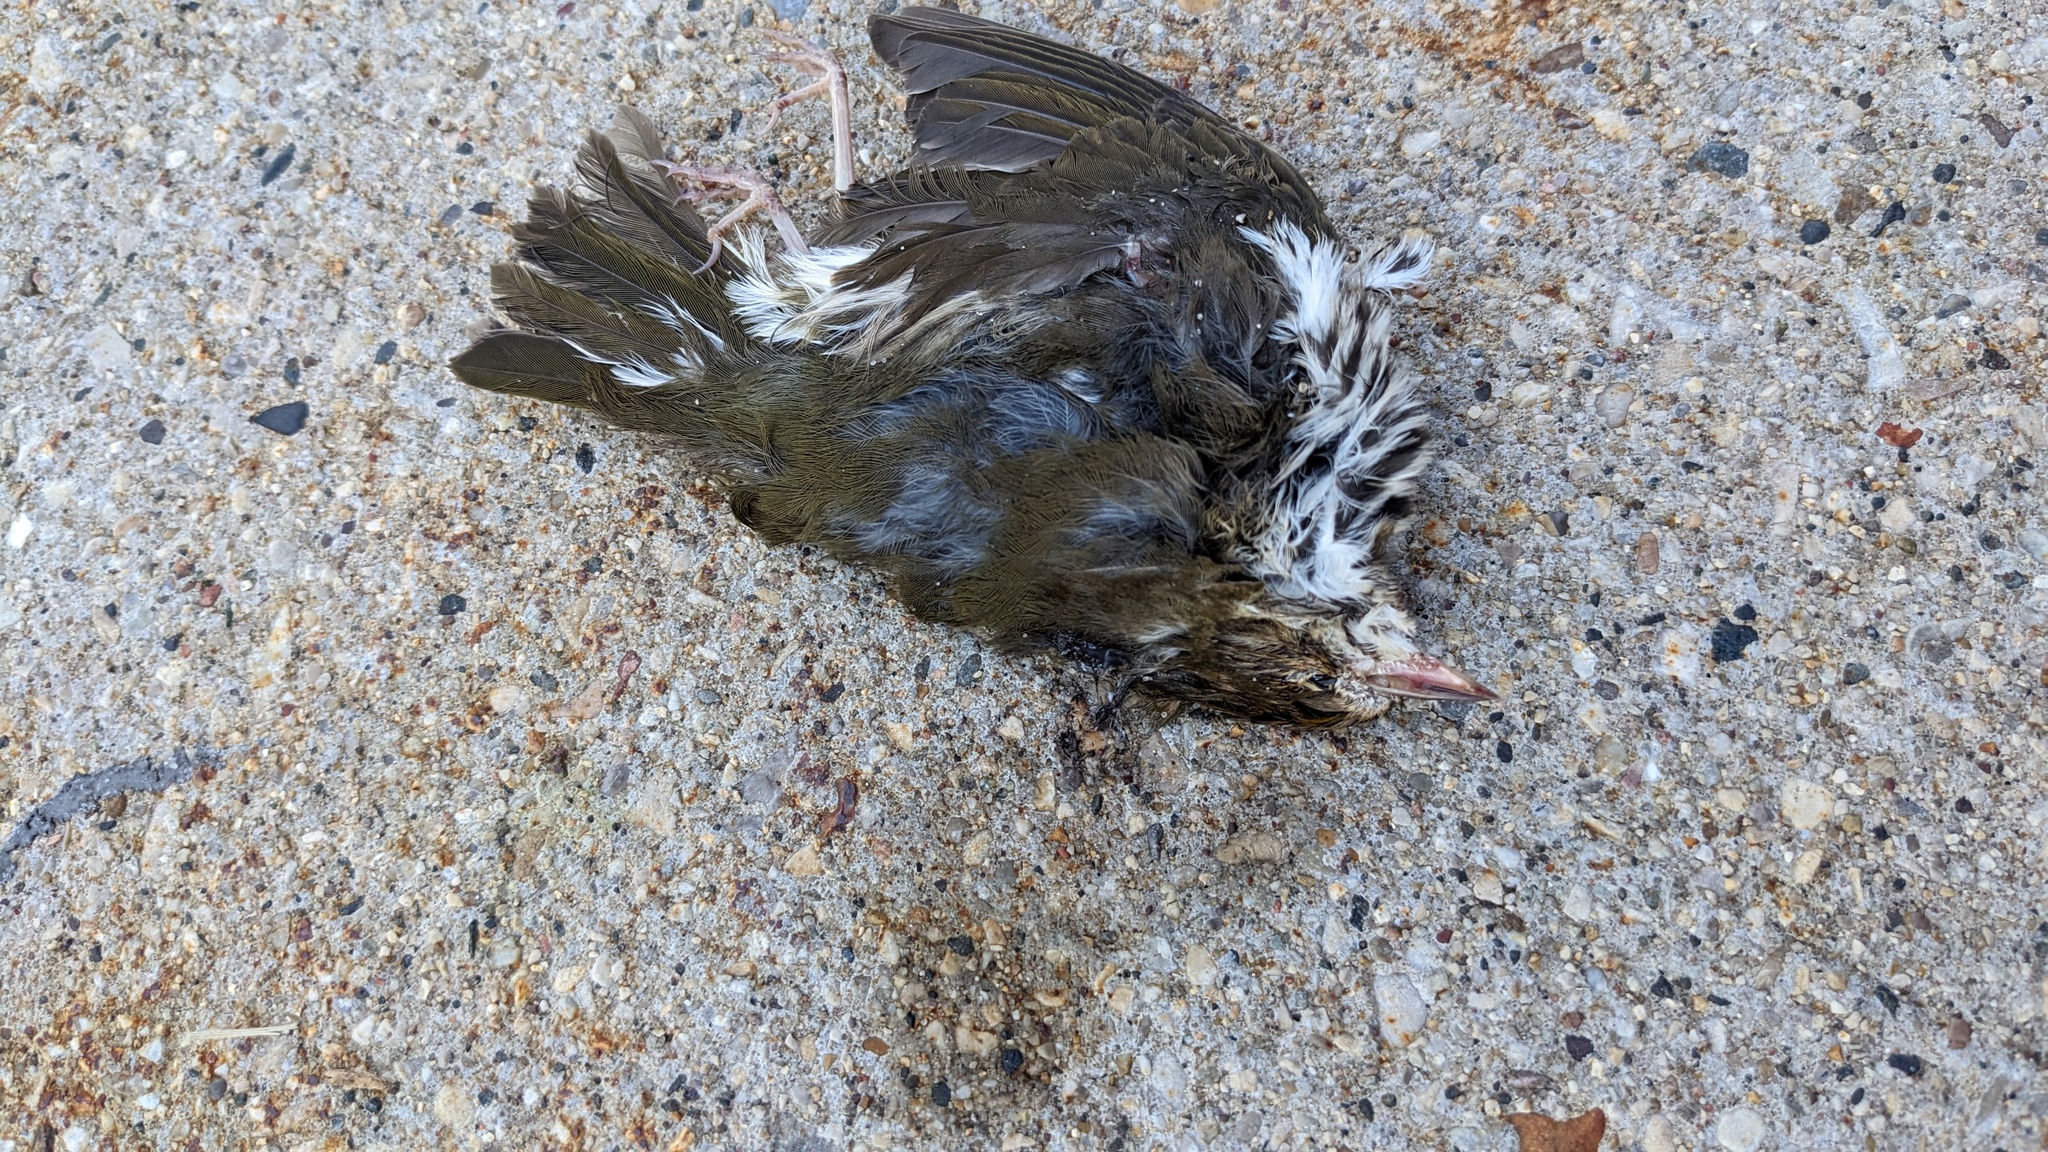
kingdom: Animalia
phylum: Chordata
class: Aves
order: Passeriformes
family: Parulidae
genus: Seiurus
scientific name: Seiurus aurocapilla
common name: Ovenbird
